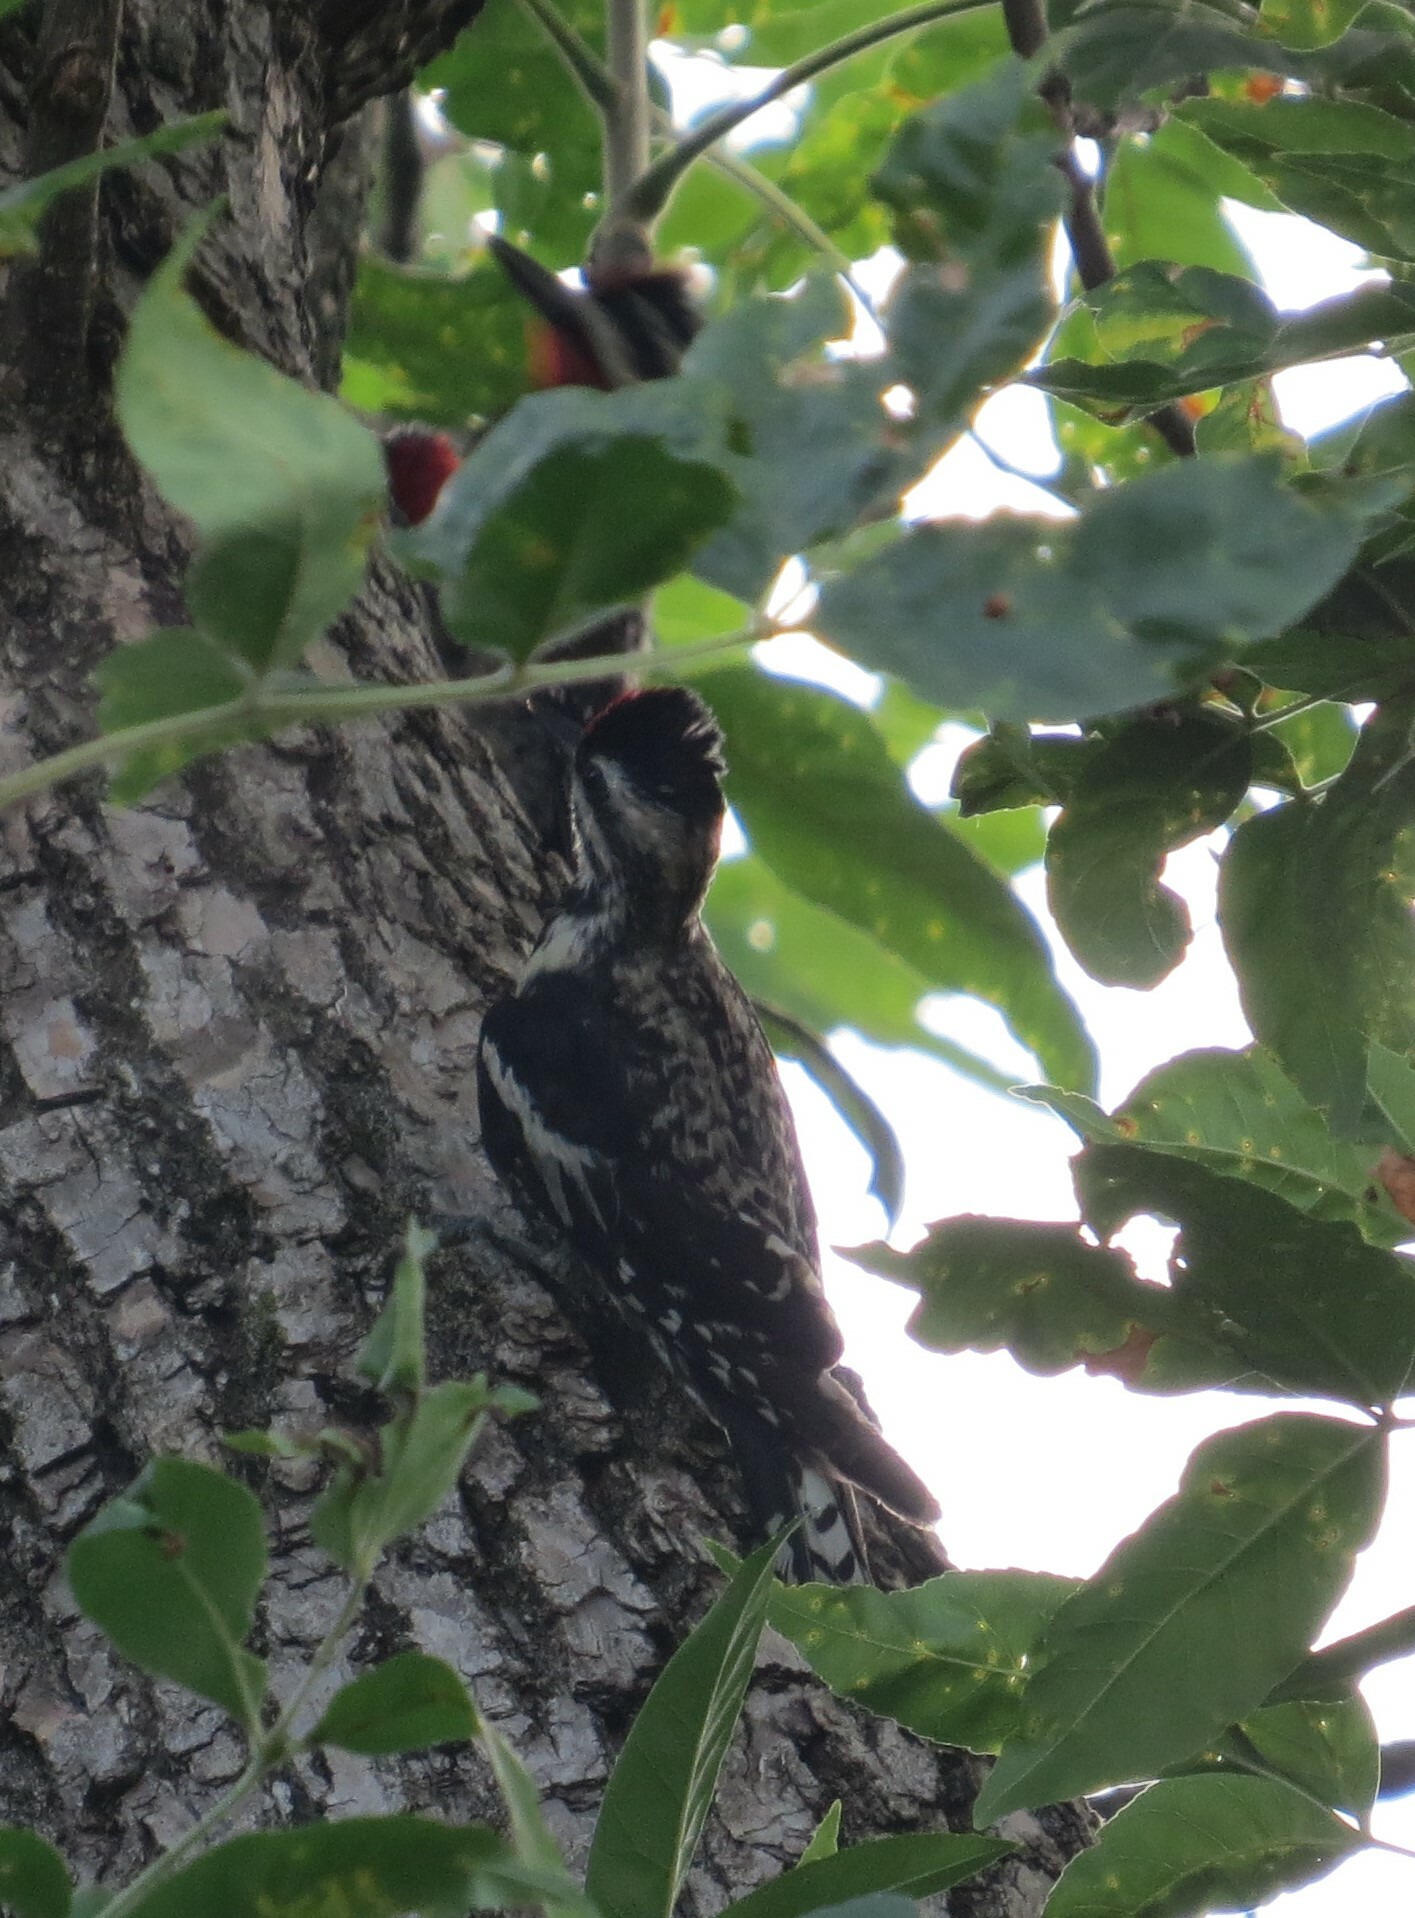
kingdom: Animalia
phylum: Chordata
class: Aves
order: Piciformes
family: Picidae
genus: Sphyrapicus
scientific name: Sphyrapicus varius
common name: Yellow-bellied sapsucker
